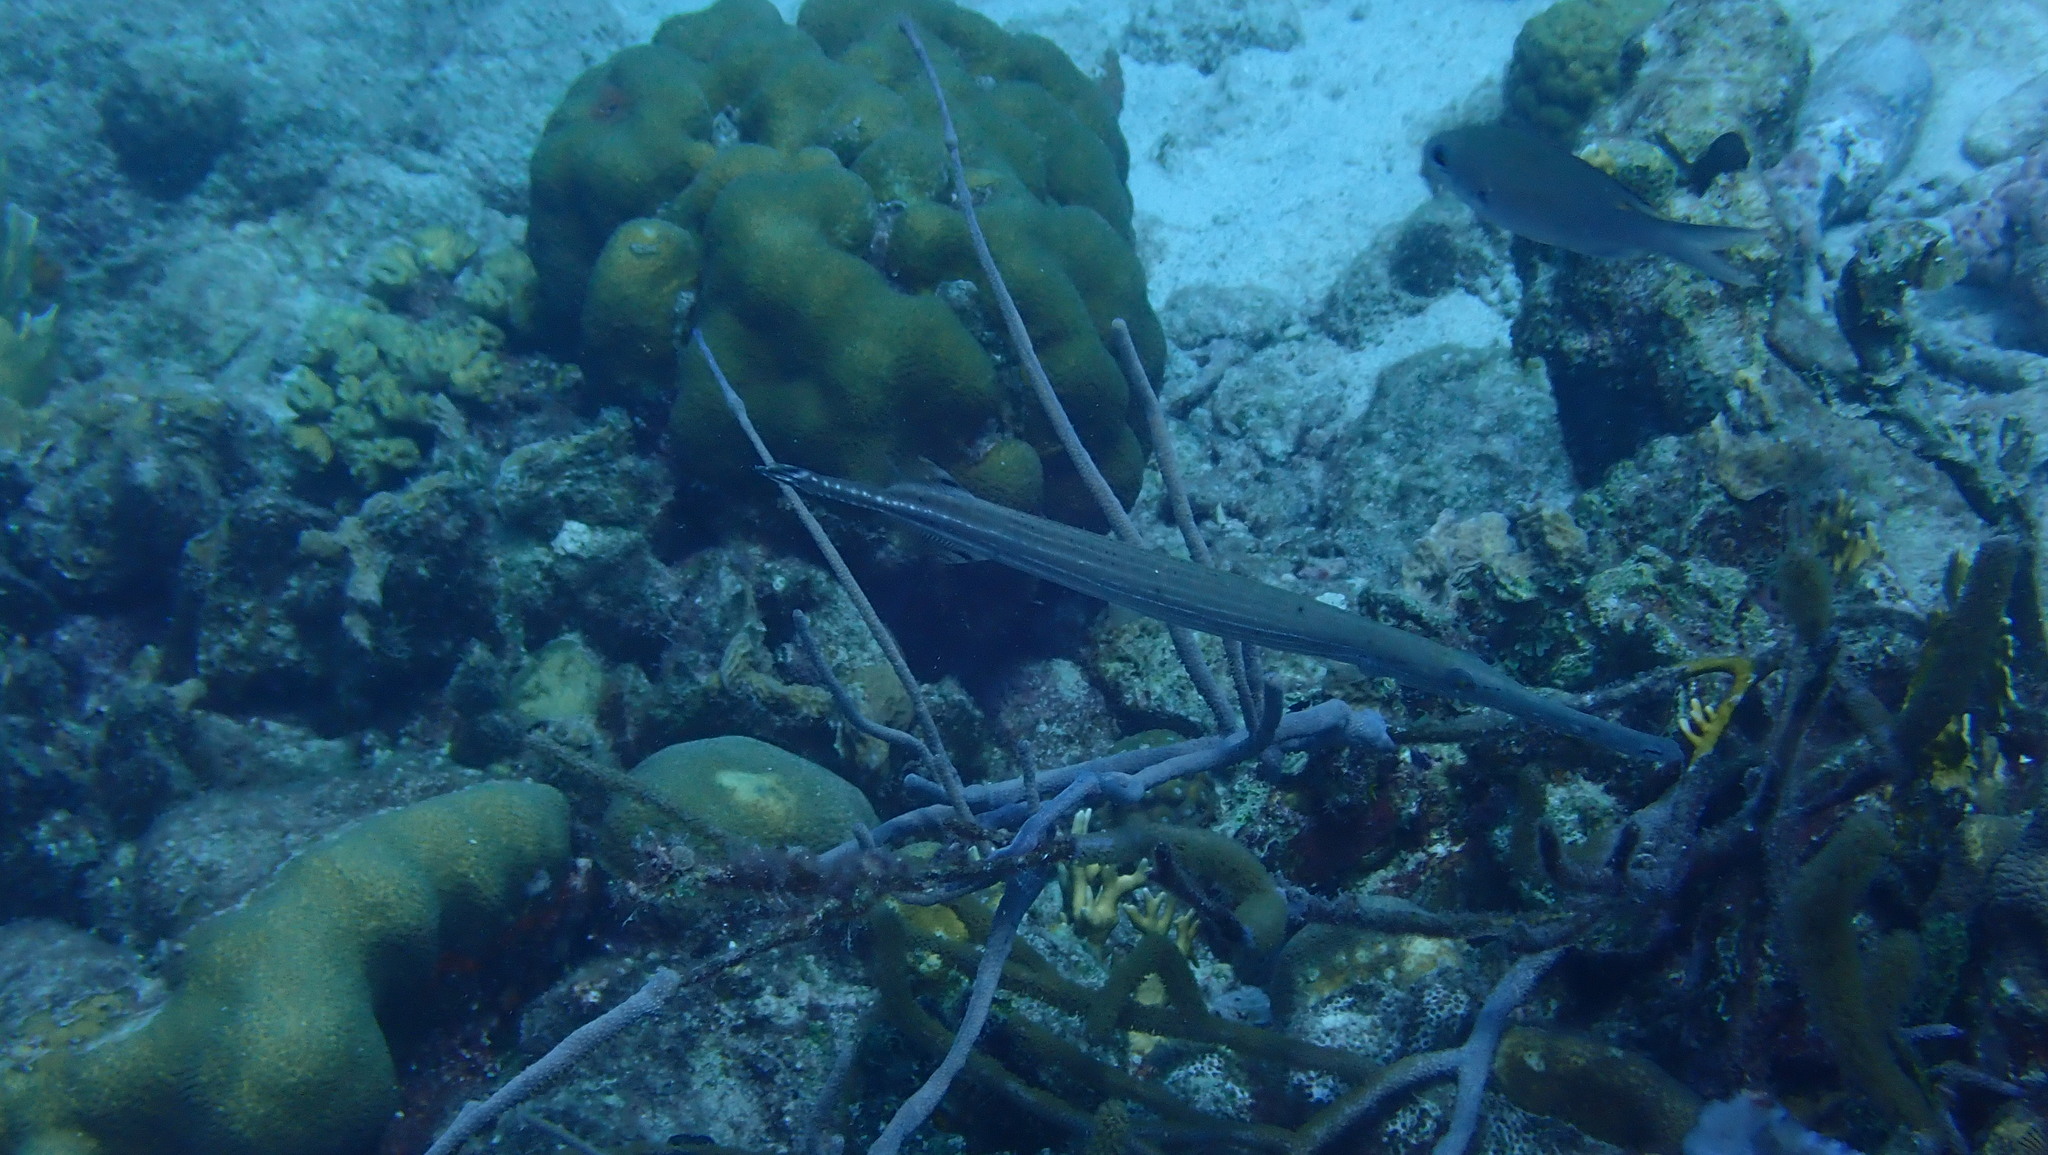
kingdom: Animalia
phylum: Chordata
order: Syngnathiformes
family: Aulostomidae
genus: Aulostomus
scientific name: Aulostomus maculatus
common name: West atlantic trumpetfish
